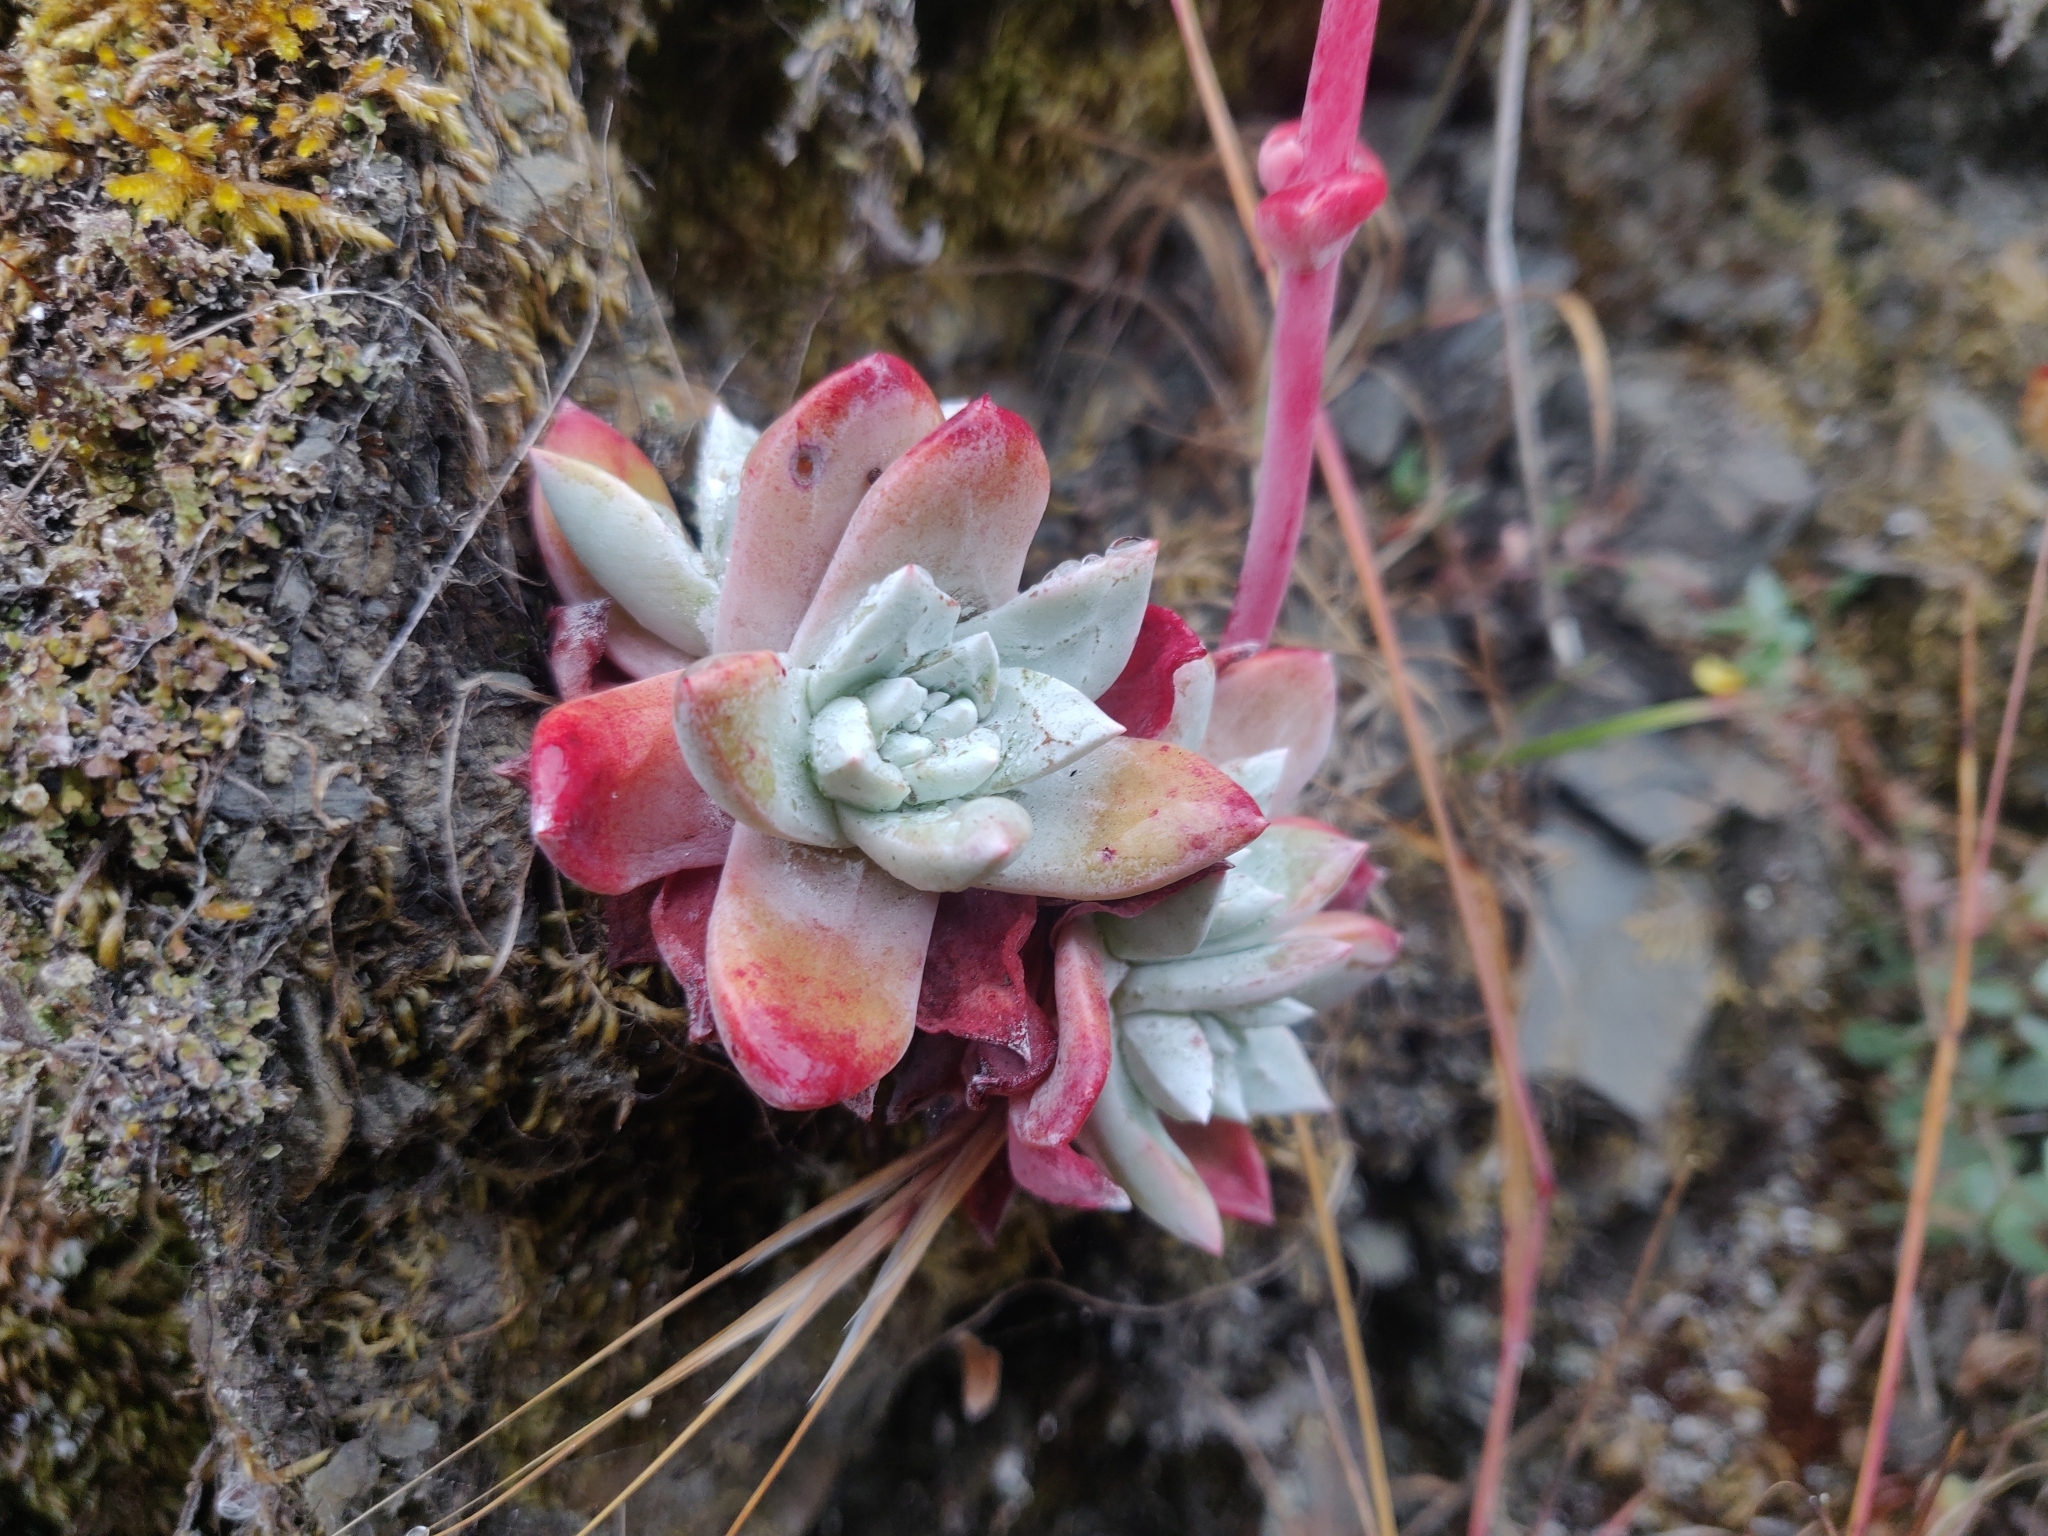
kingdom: Plantae
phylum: Tracheophyta
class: Magnoliopsida
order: Saxifragales
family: Crassulaceae
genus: Dudleya
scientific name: Dudleya farinosa
